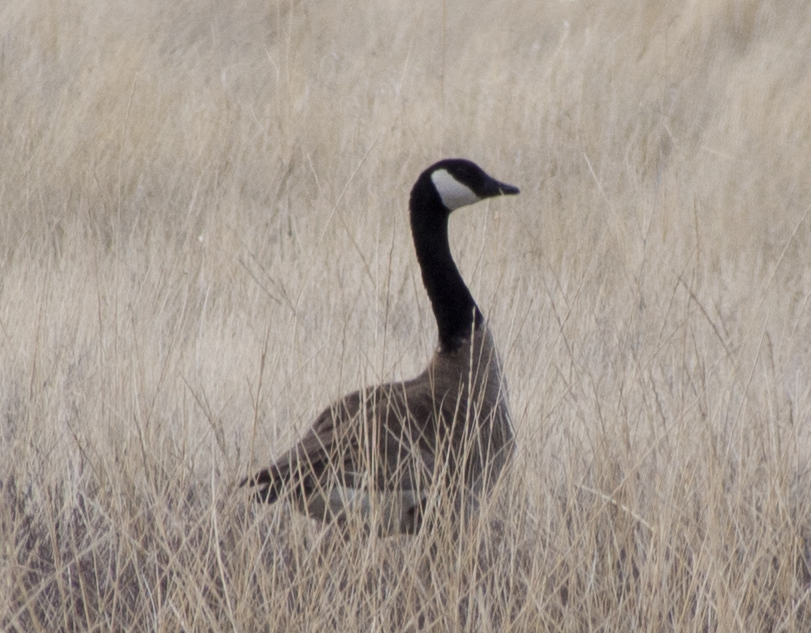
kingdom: Animalia
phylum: Chordata
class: Aves
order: Anseriformes
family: Anatidae
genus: Branta
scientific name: Branta canadensis
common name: Canada goose
